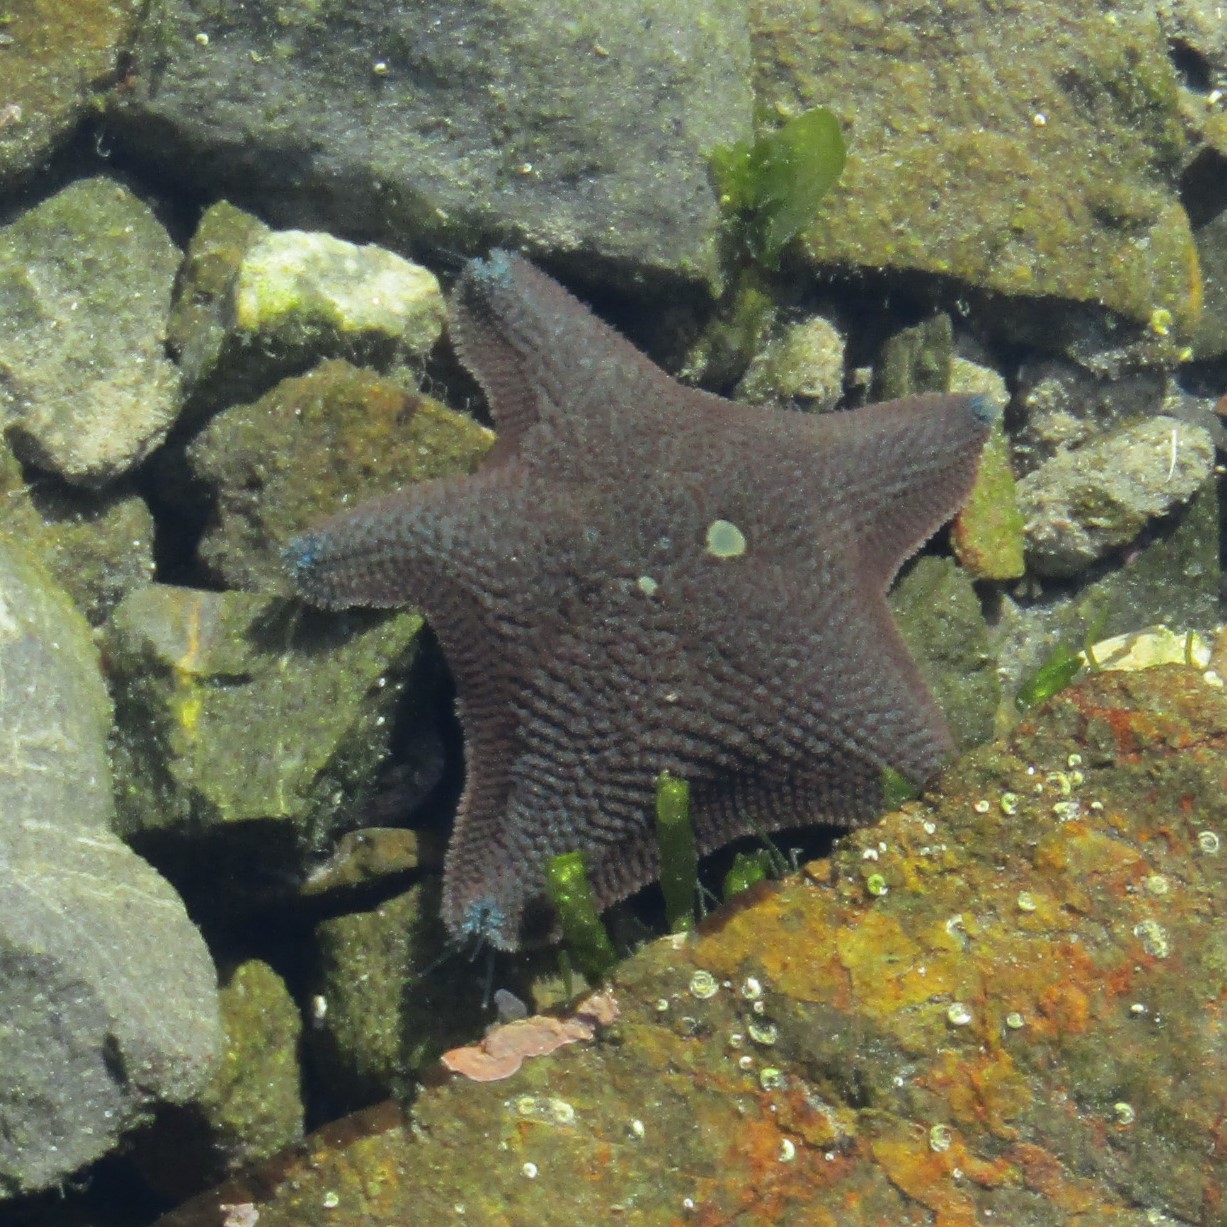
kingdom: Animalia
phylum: Echinodermata
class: Asteroidea
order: Valvatida
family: Asterinidae
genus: Patiriella
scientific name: Patiriella regularis
